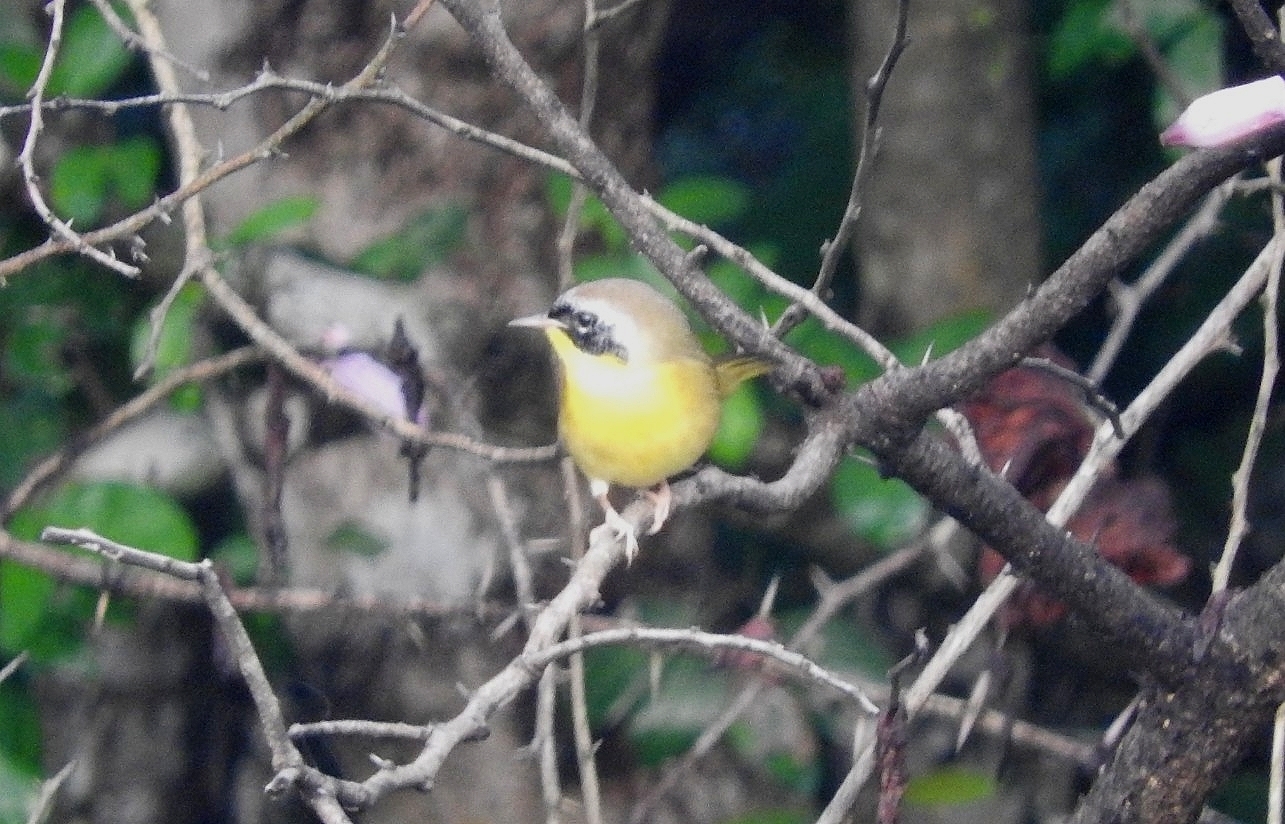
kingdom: Animalia
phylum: Chordata
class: Aves
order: Passeriformes
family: Parulidae
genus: Geothlypis
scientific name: Geothlypis trichas
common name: Common yellowthroat
